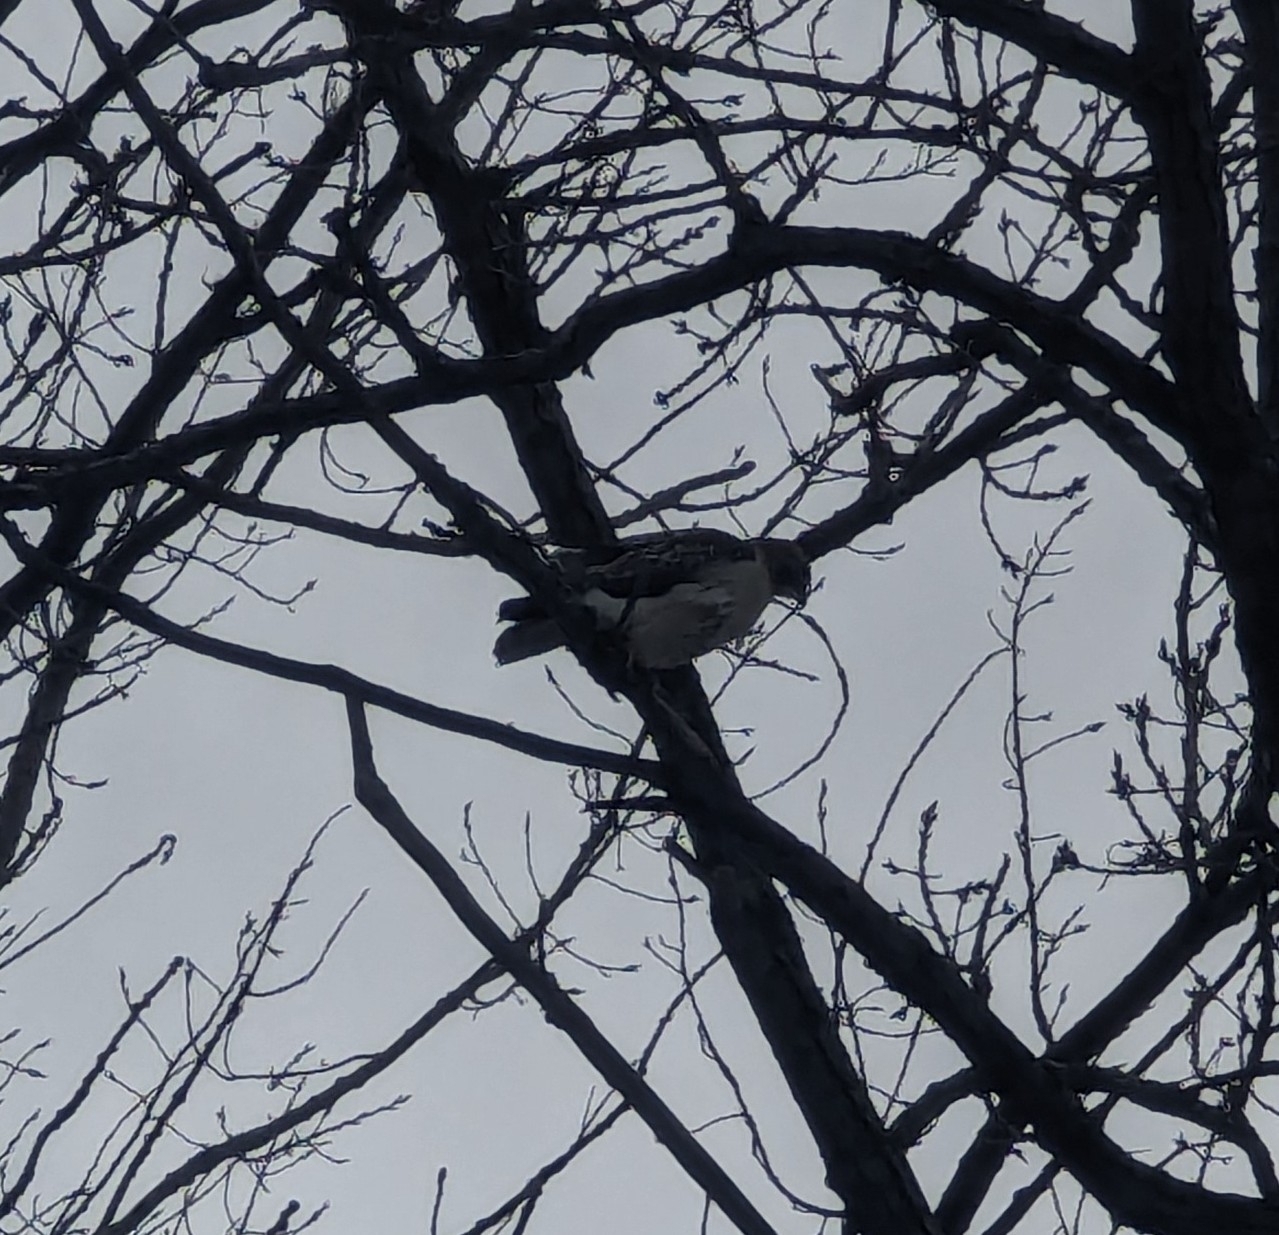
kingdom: Animalia
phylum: Chordata
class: Aves
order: Accipitriformes
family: Accipitridae
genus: Buteo
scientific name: Buteo jamaicensis
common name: Red-tailed hawk
